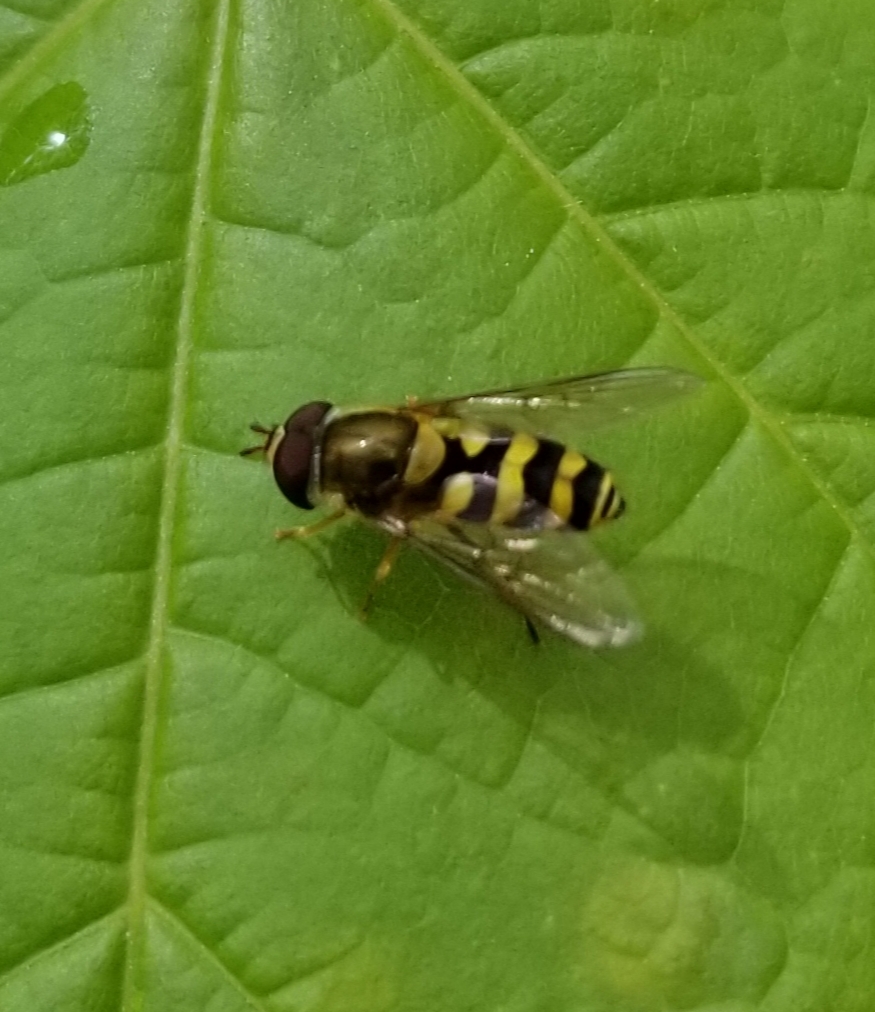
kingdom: Animalia
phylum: Arthropoda
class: Insecta
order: Diptera
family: Syrphidae
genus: Syrphus
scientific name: Syrphus
